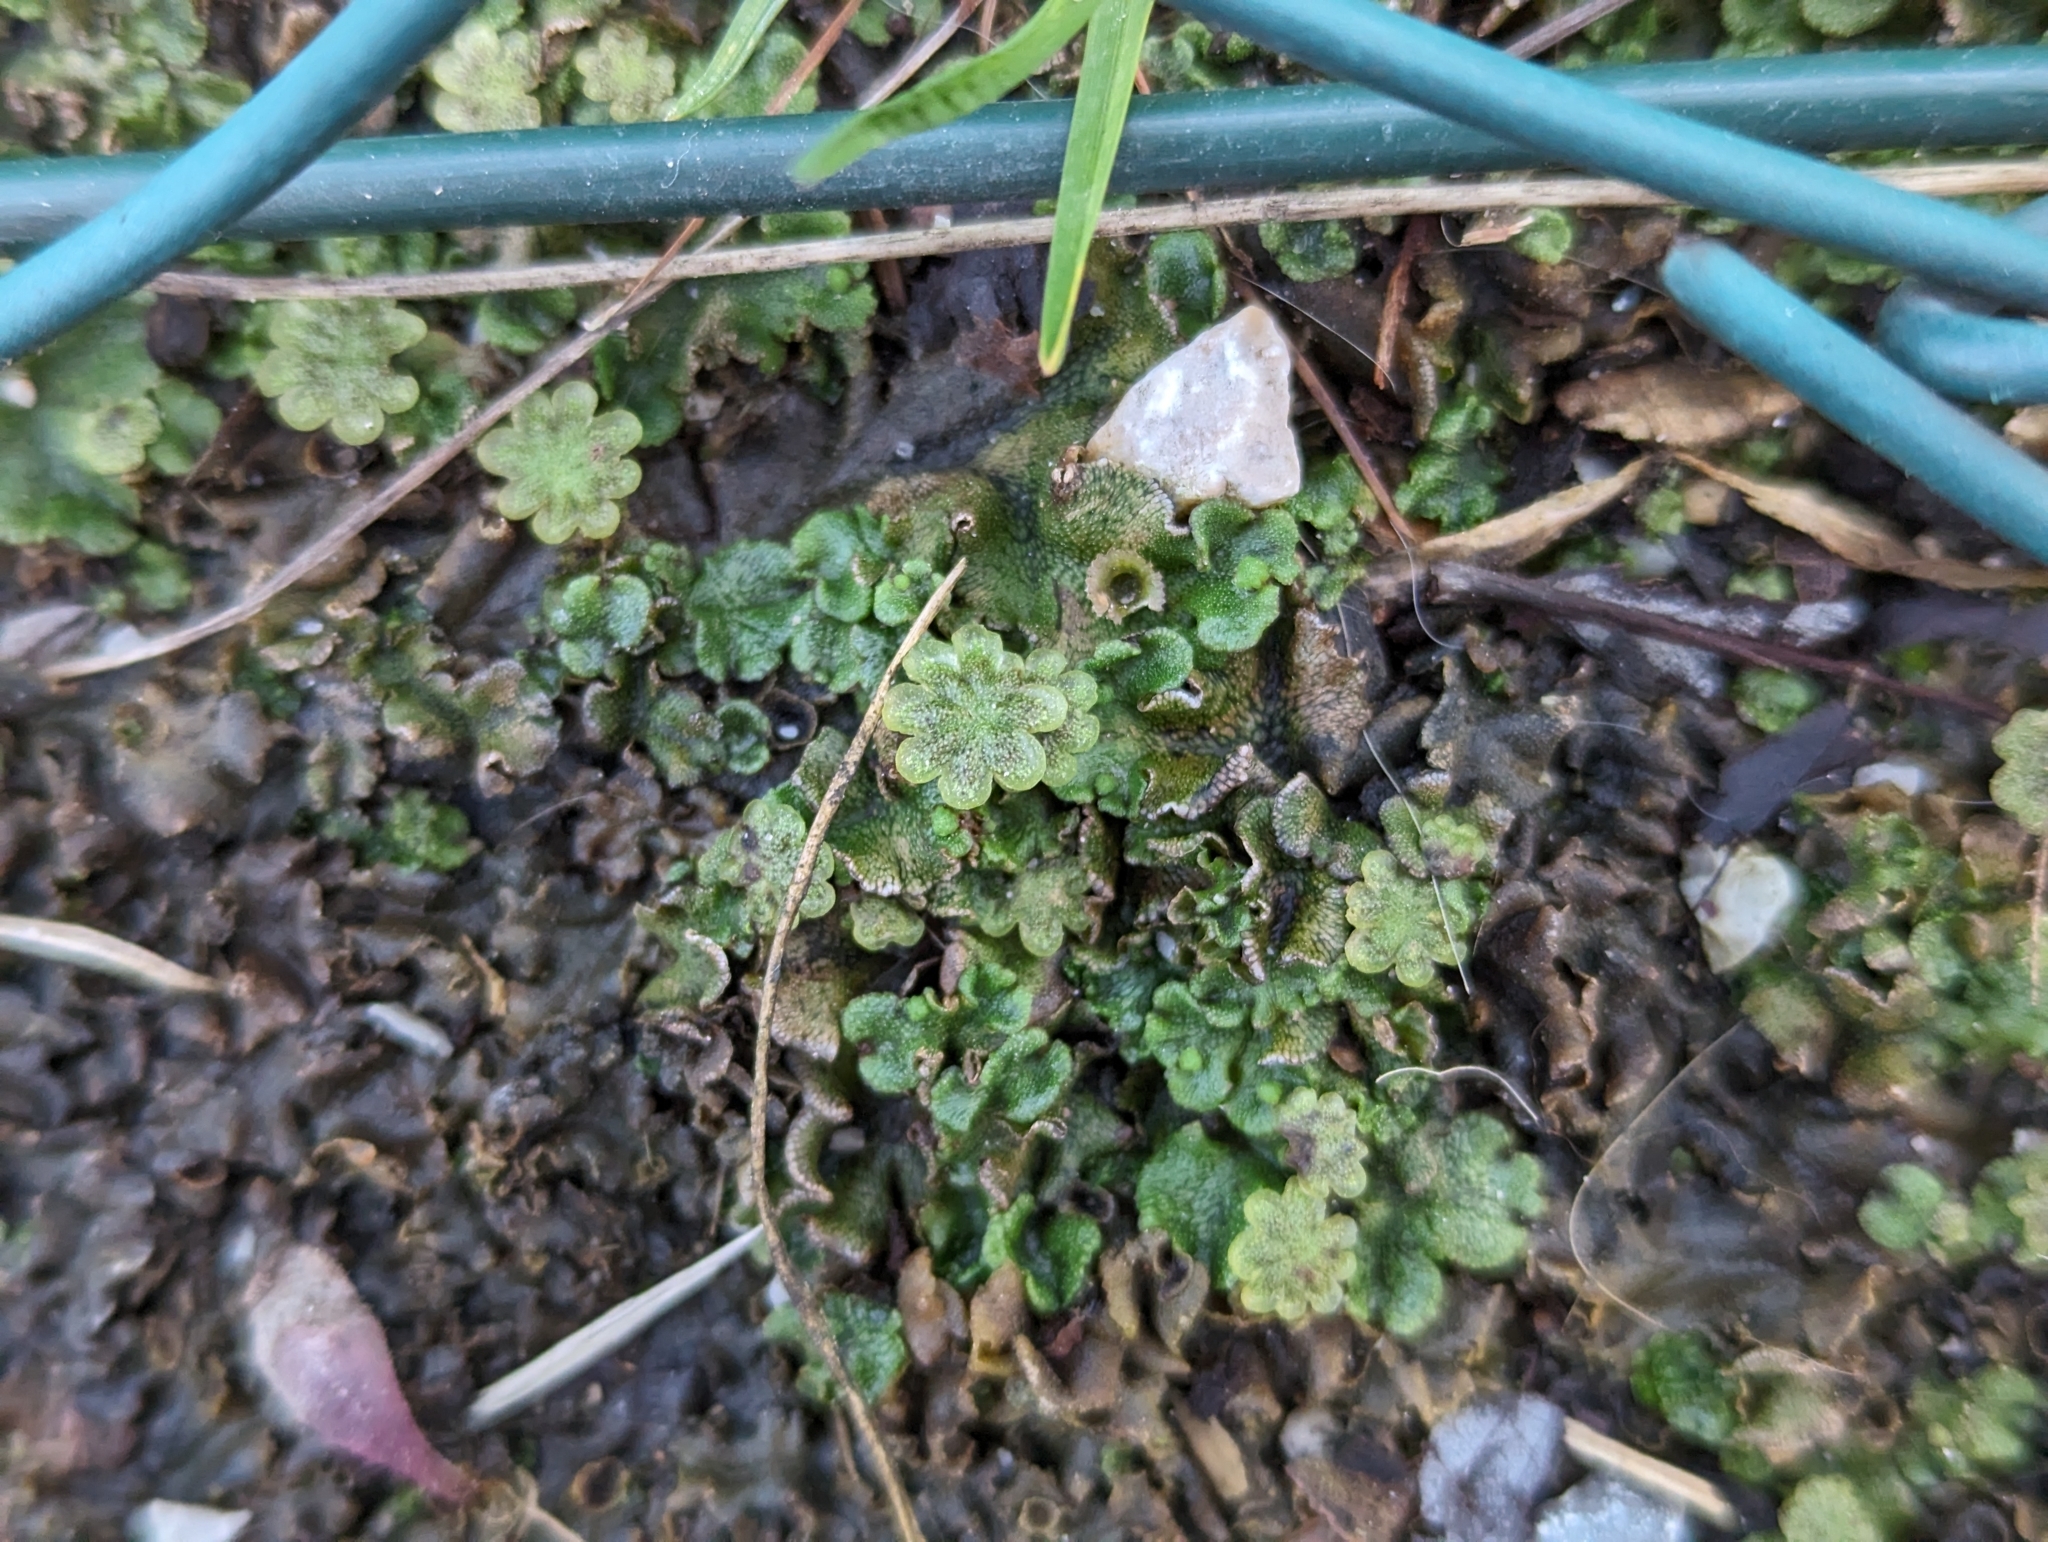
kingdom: Plantae
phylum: Marchantiophyta
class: Marchantiopsida
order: Marchantiales
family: Marchantiaceae
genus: Marchantia
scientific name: Marchantia polymorpha
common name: Common liverwort
